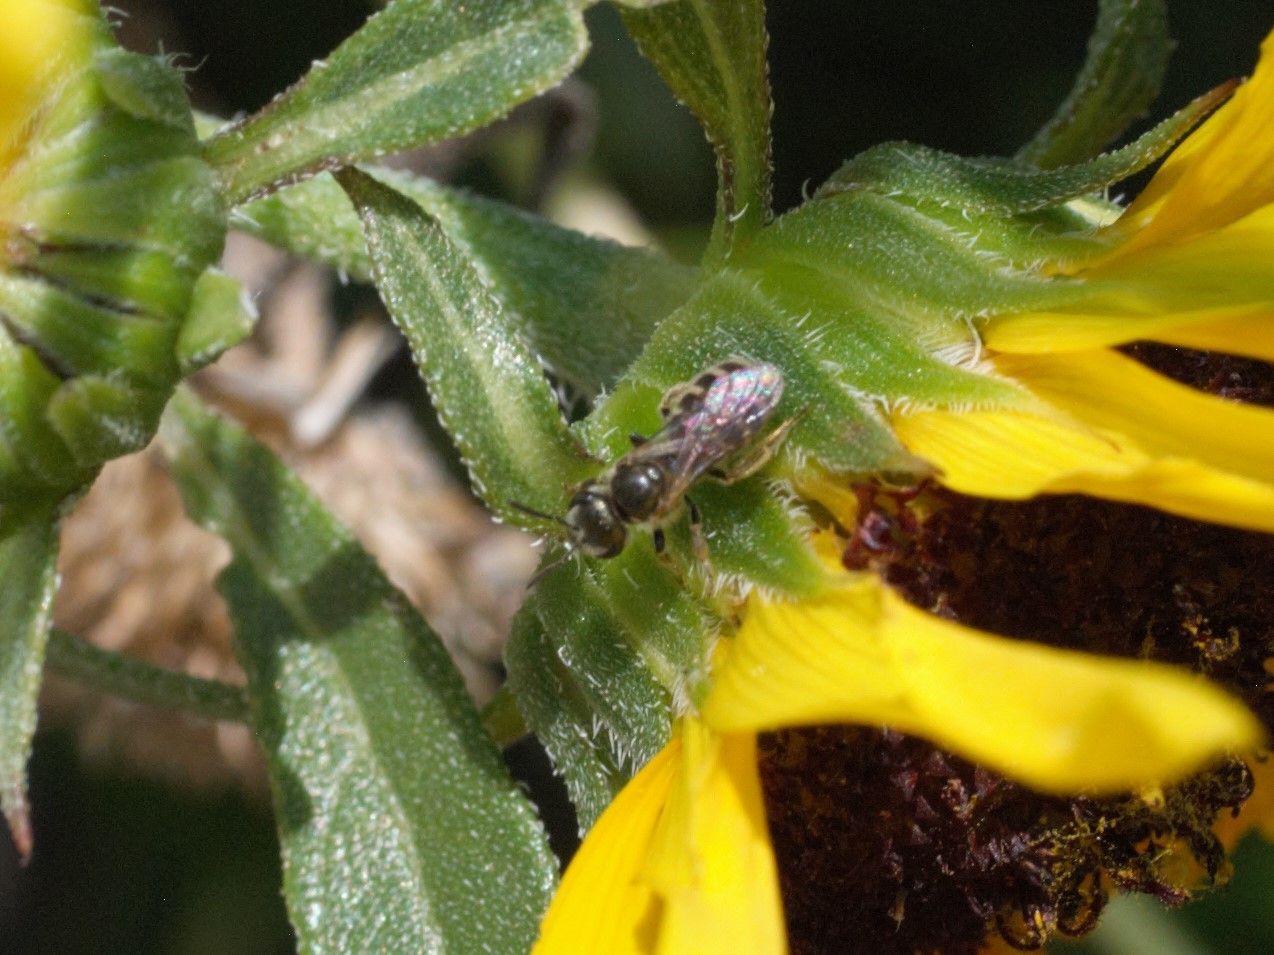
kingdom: Animalia
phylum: Arthropoda
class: Insecta
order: Hymenoptera
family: Halictidae
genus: Halictus
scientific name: Halictus tripartitus
